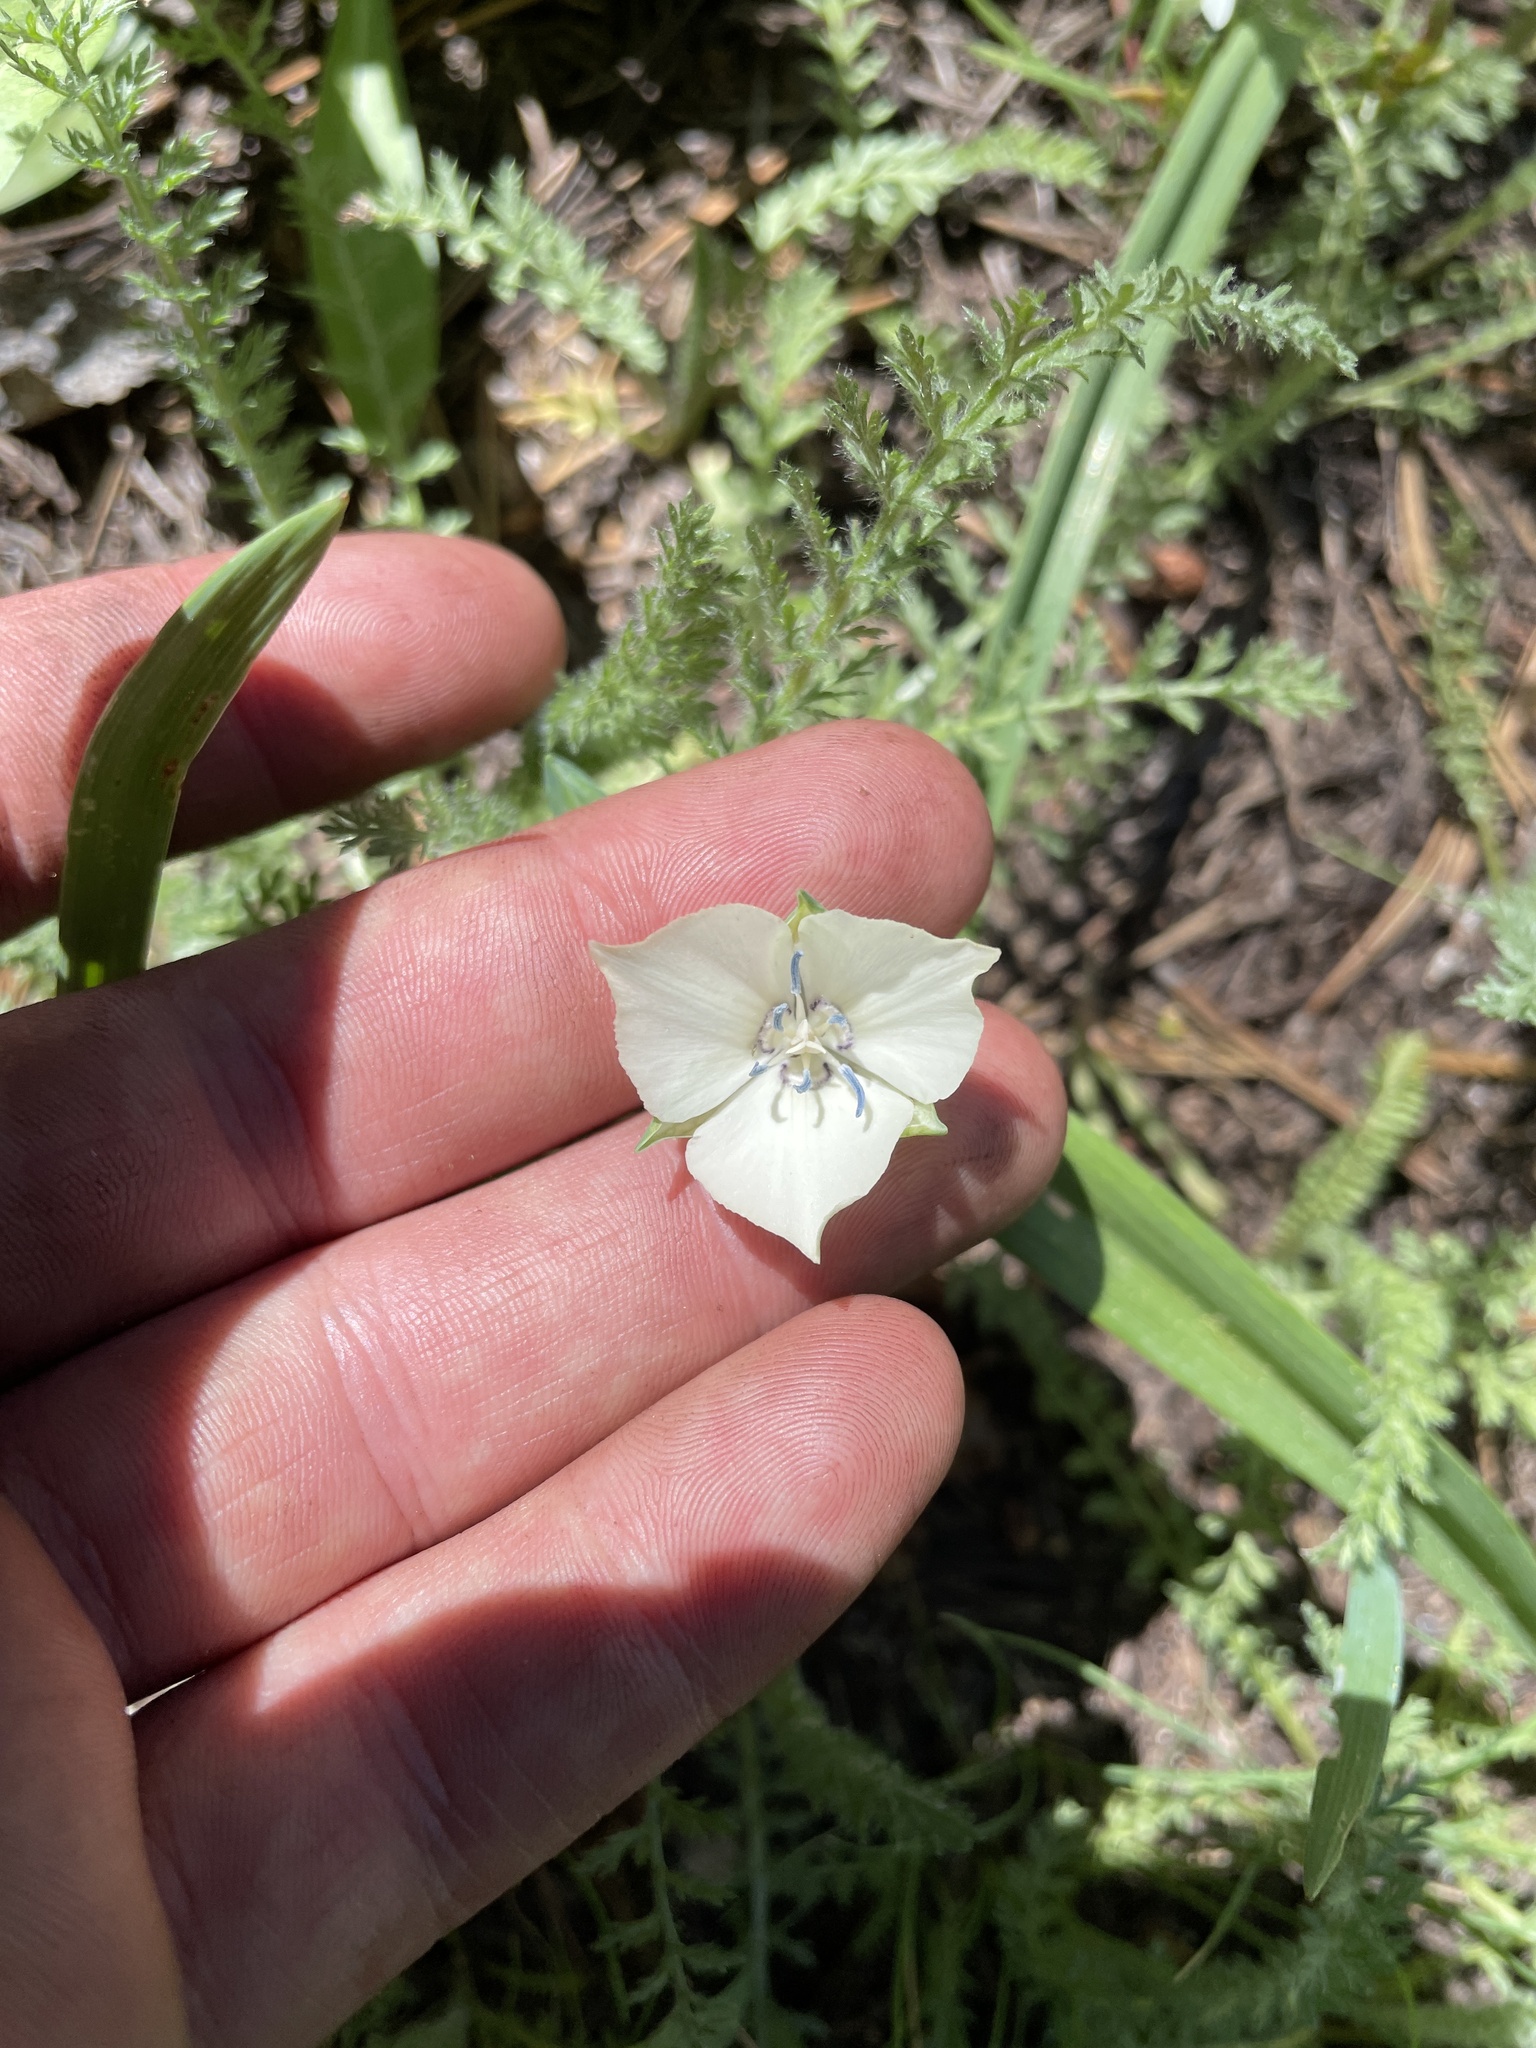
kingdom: Plantae
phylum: Tracheophyta
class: Liliopsida
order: Liliales
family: Liliaceae
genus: Calochortus
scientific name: Calochortus minimus
